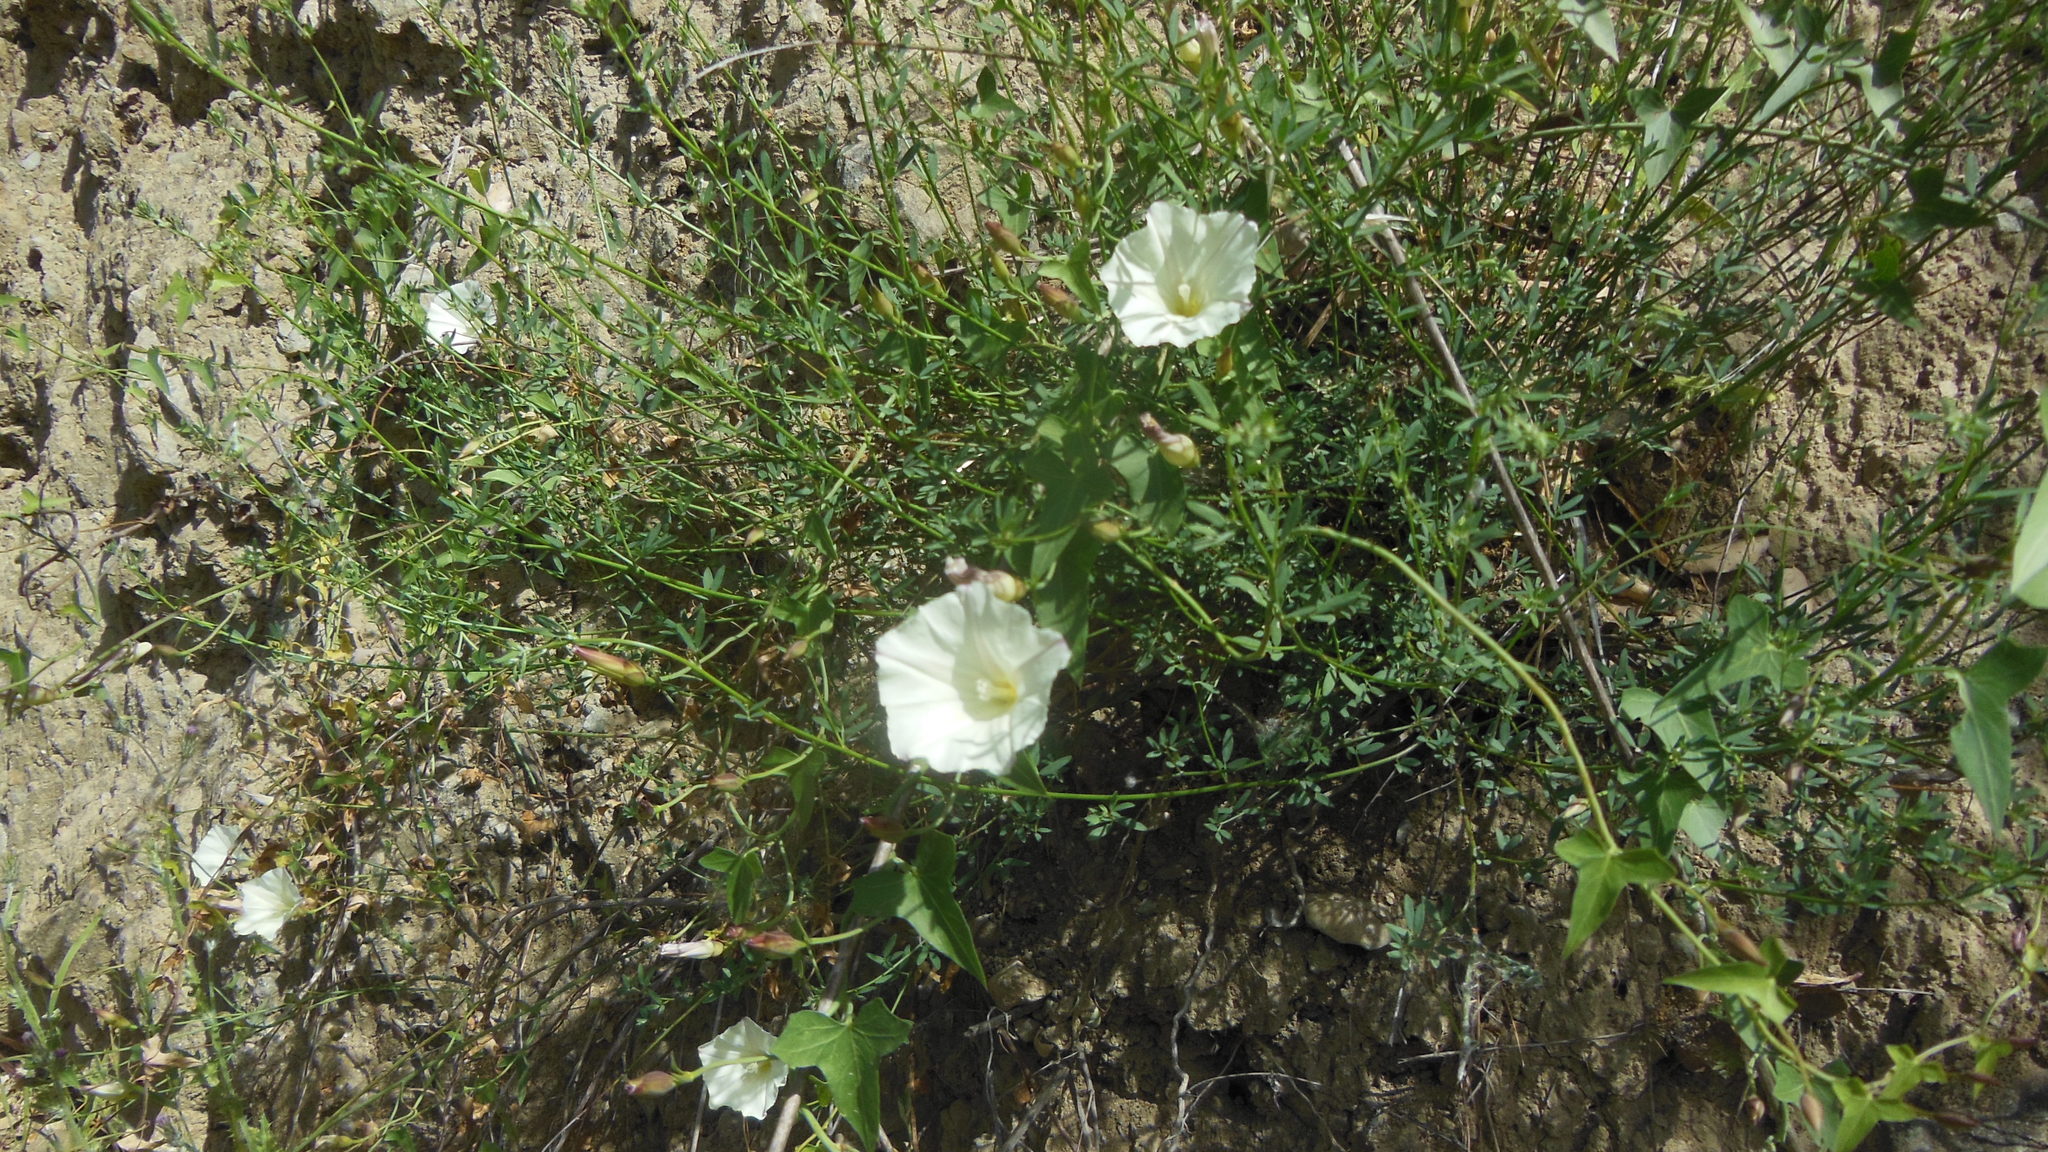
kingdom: Plantae
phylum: Tracheophyta
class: Magnoliopsida
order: Solanales
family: Convolvulaceae
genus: Calystegia
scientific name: Calystegia purpurata
